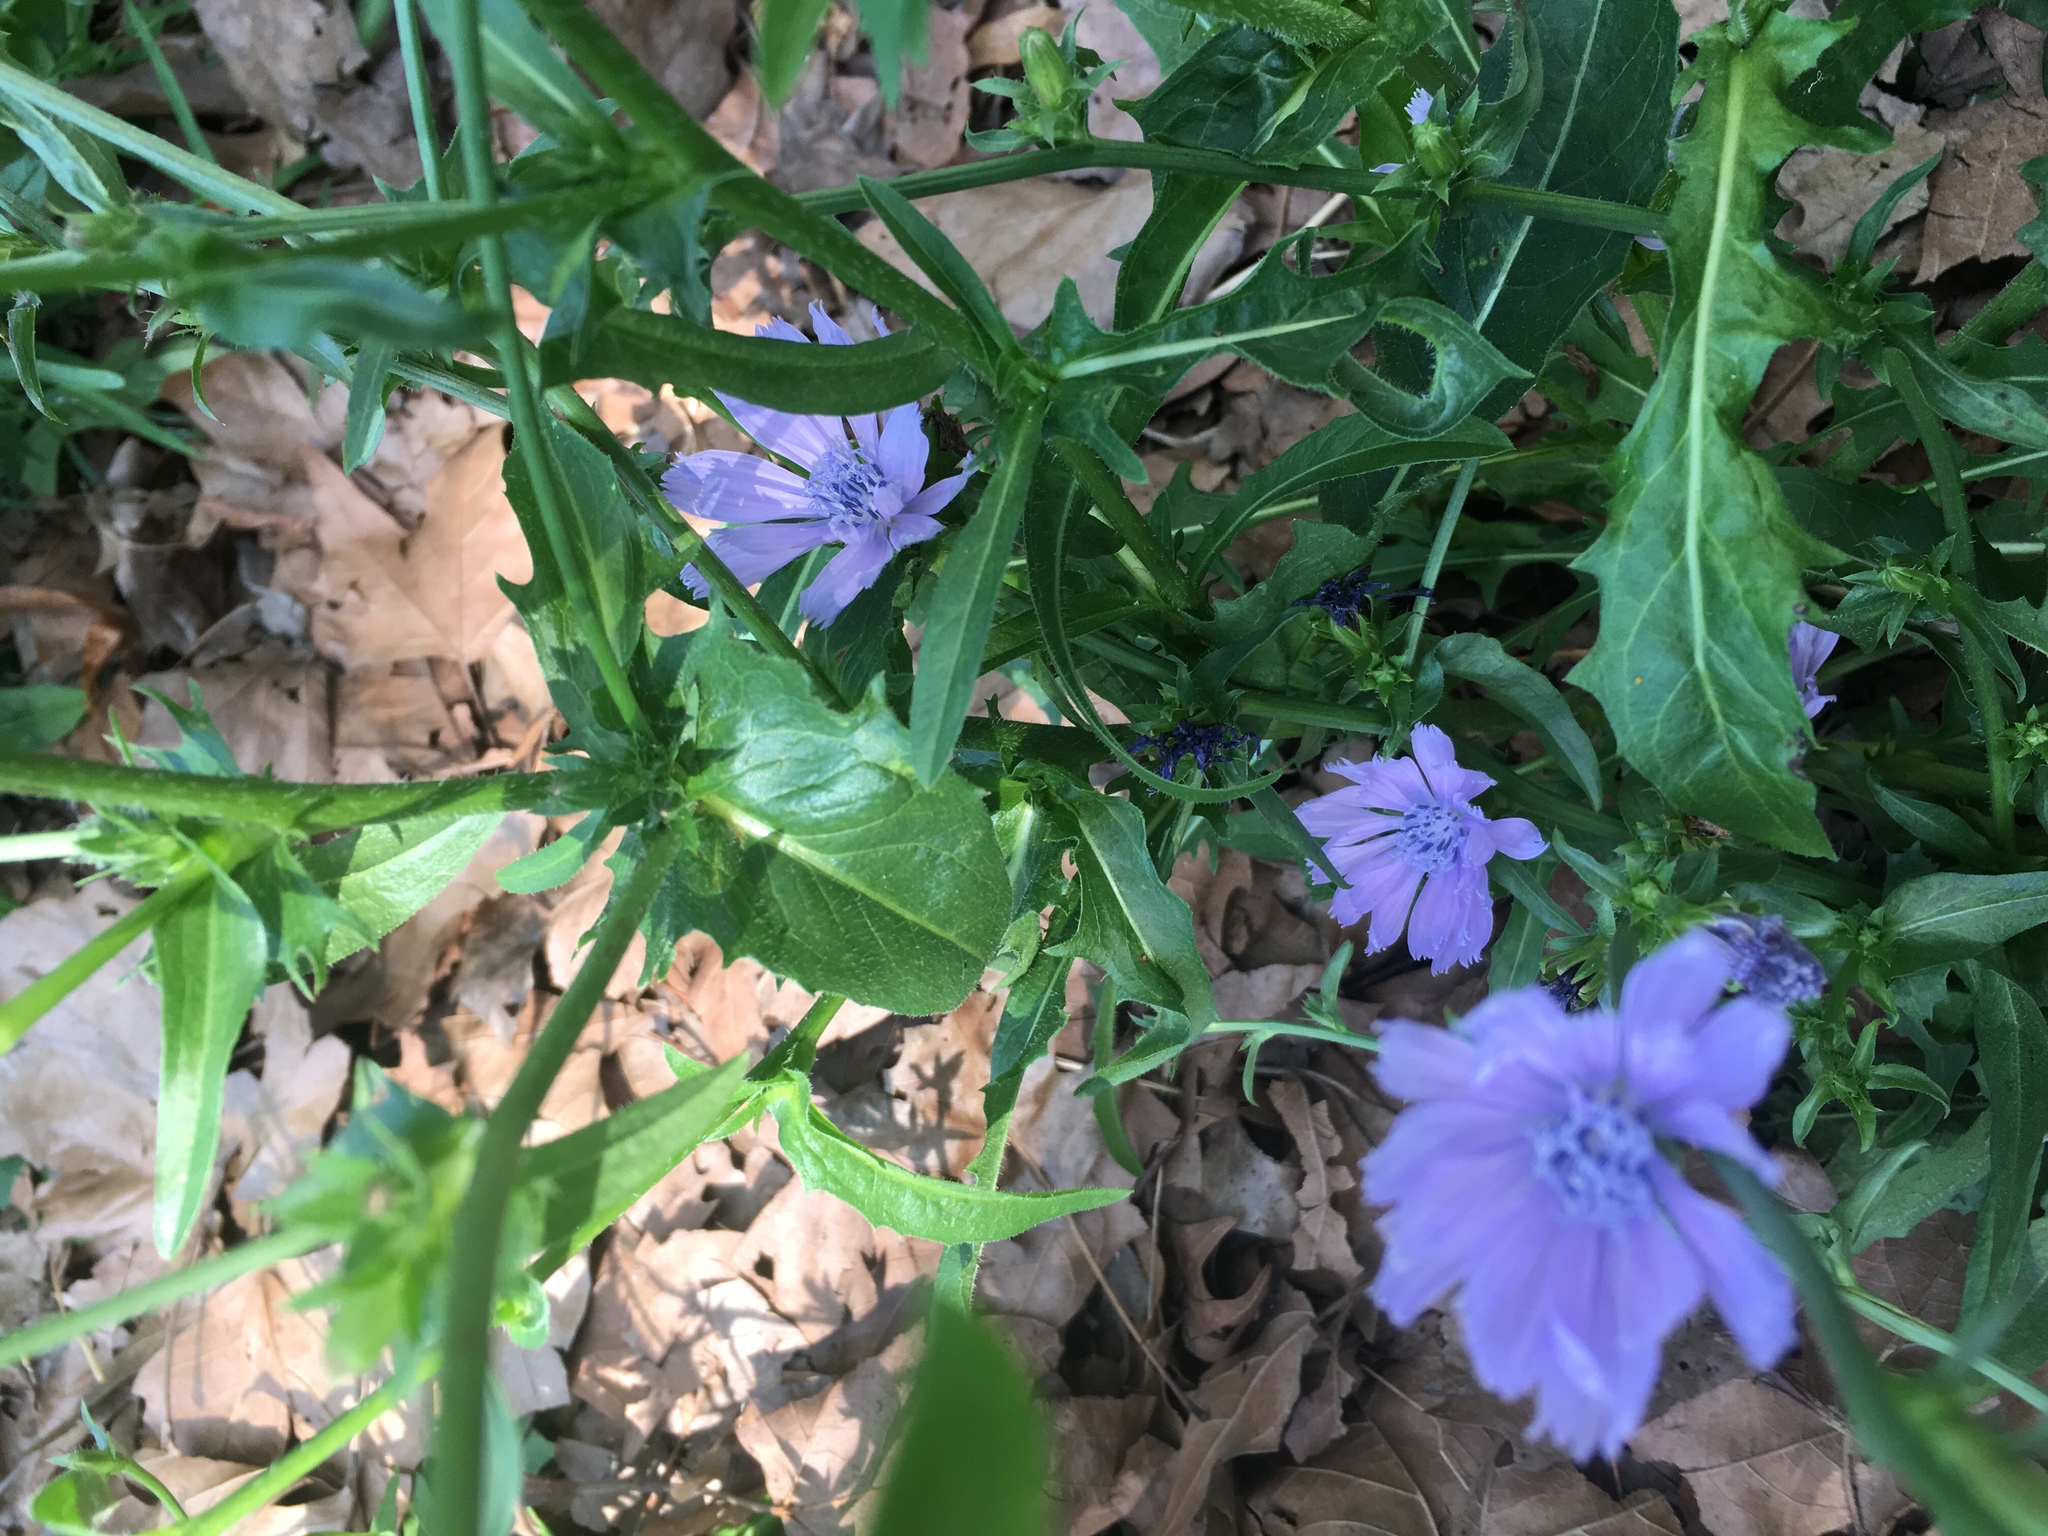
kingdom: Plantae
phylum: Tracheophyta
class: Magnoliopsida
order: Asterales
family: Asteraceae
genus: Cichorium
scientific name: Cichorium intybus
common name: Chicory
